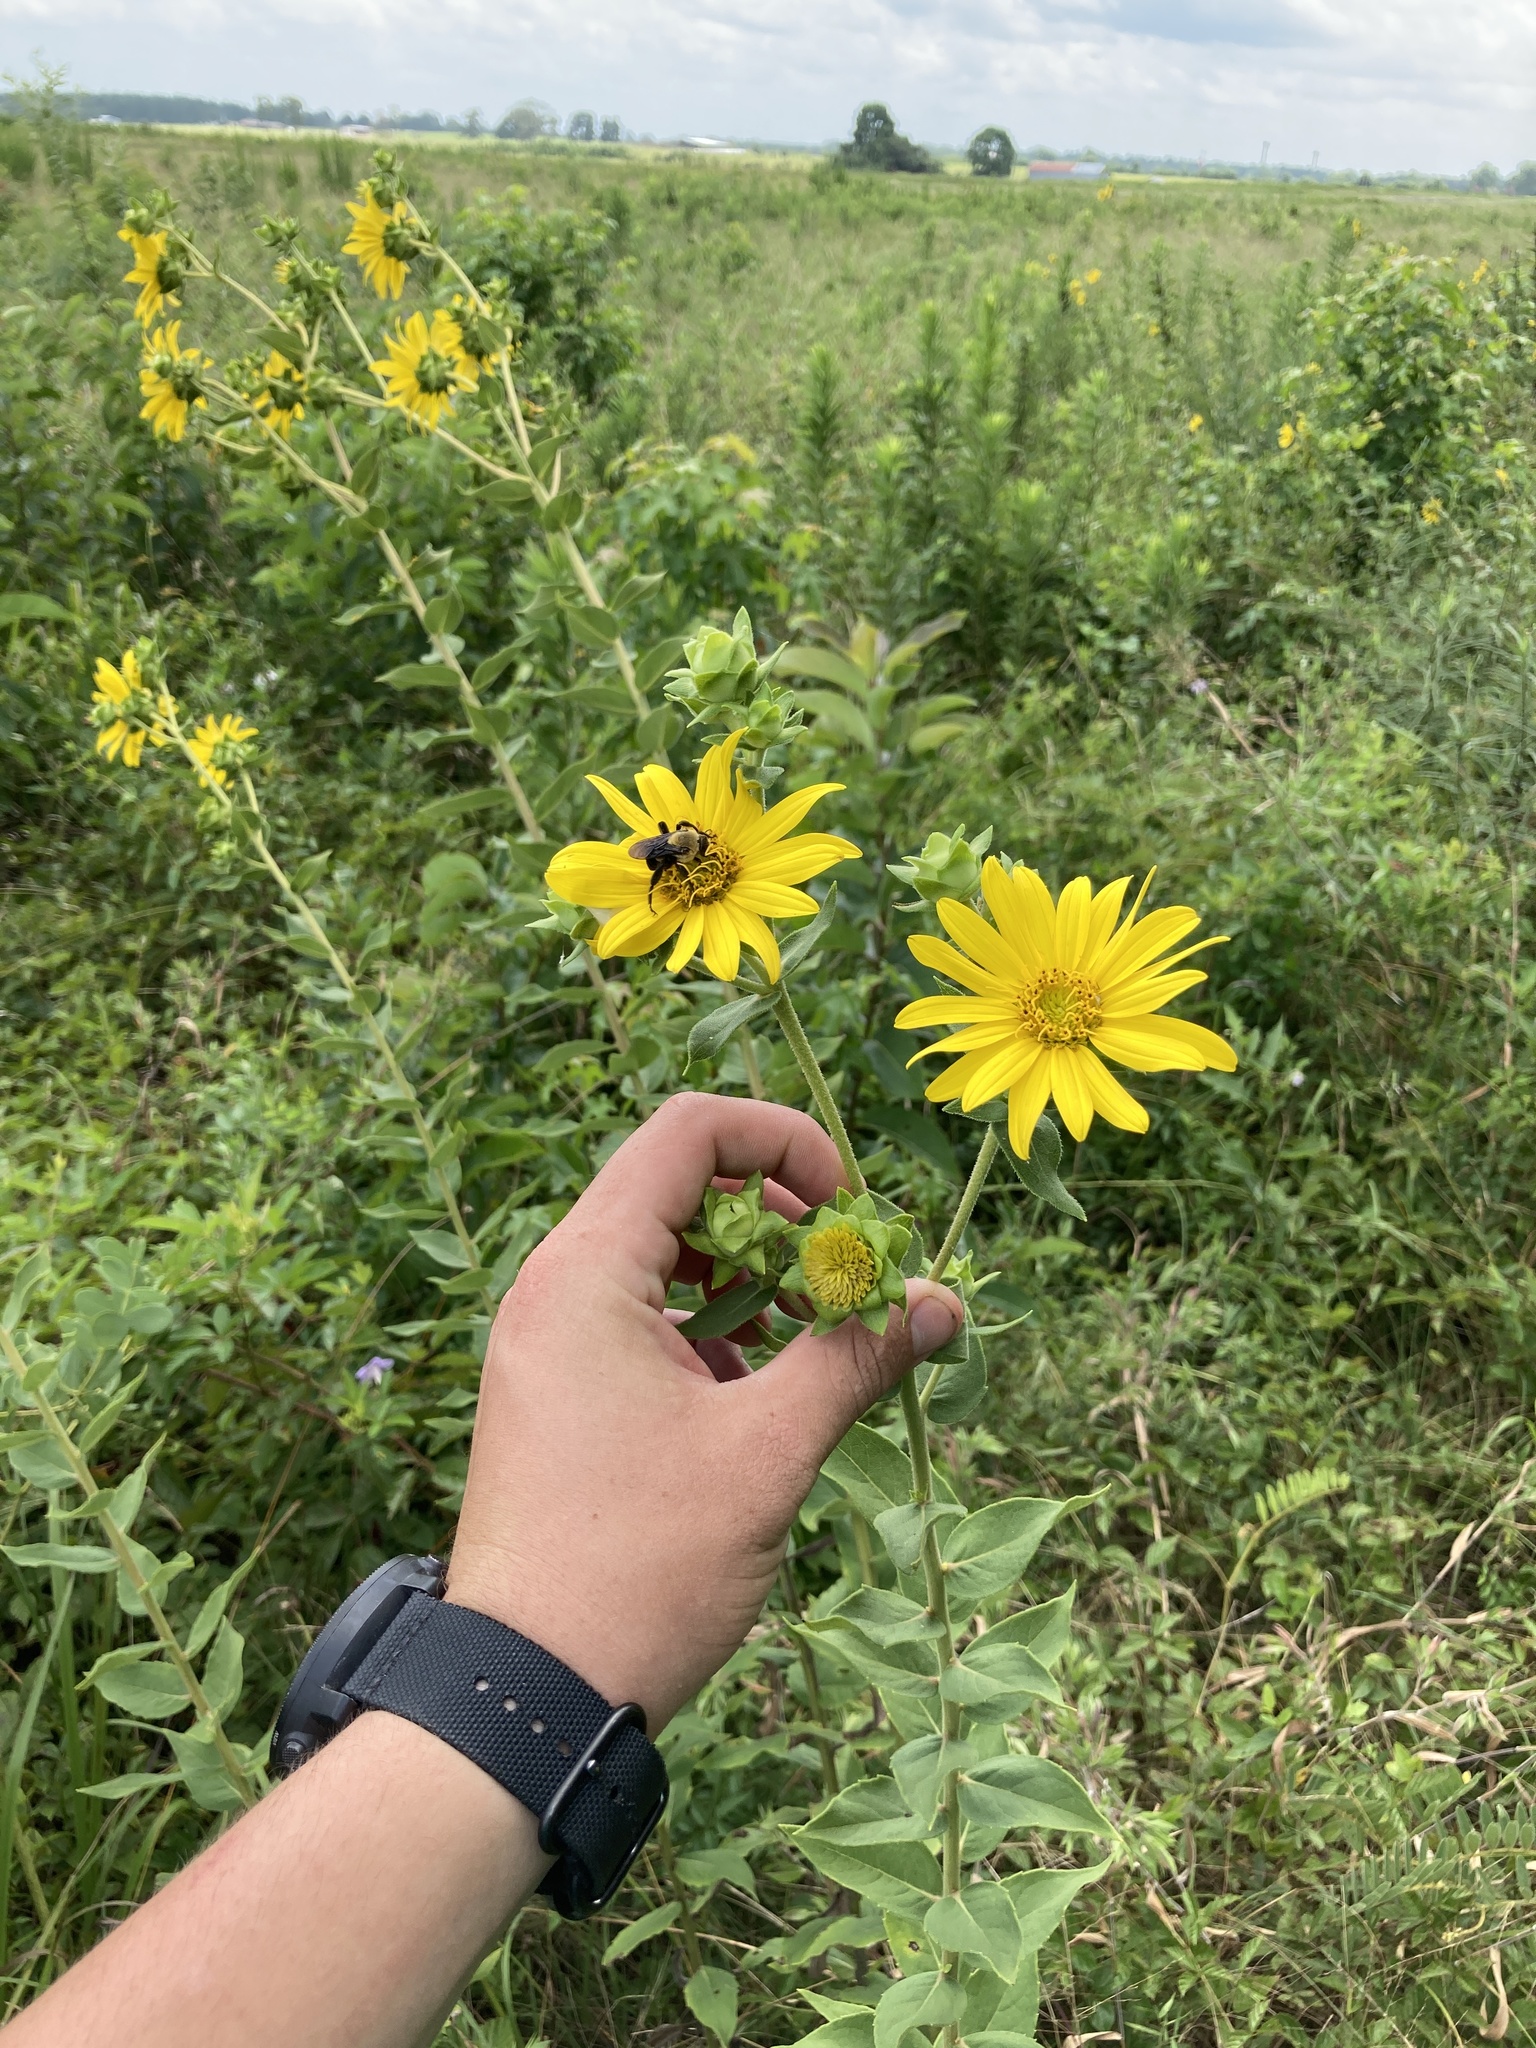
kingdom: Plantae
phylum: Tracheophyta
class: Magnoliopsida
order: Asterales
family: Asteraceae
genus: Silphium
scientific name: Silphium radula
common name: Roughleaf rosinweed
